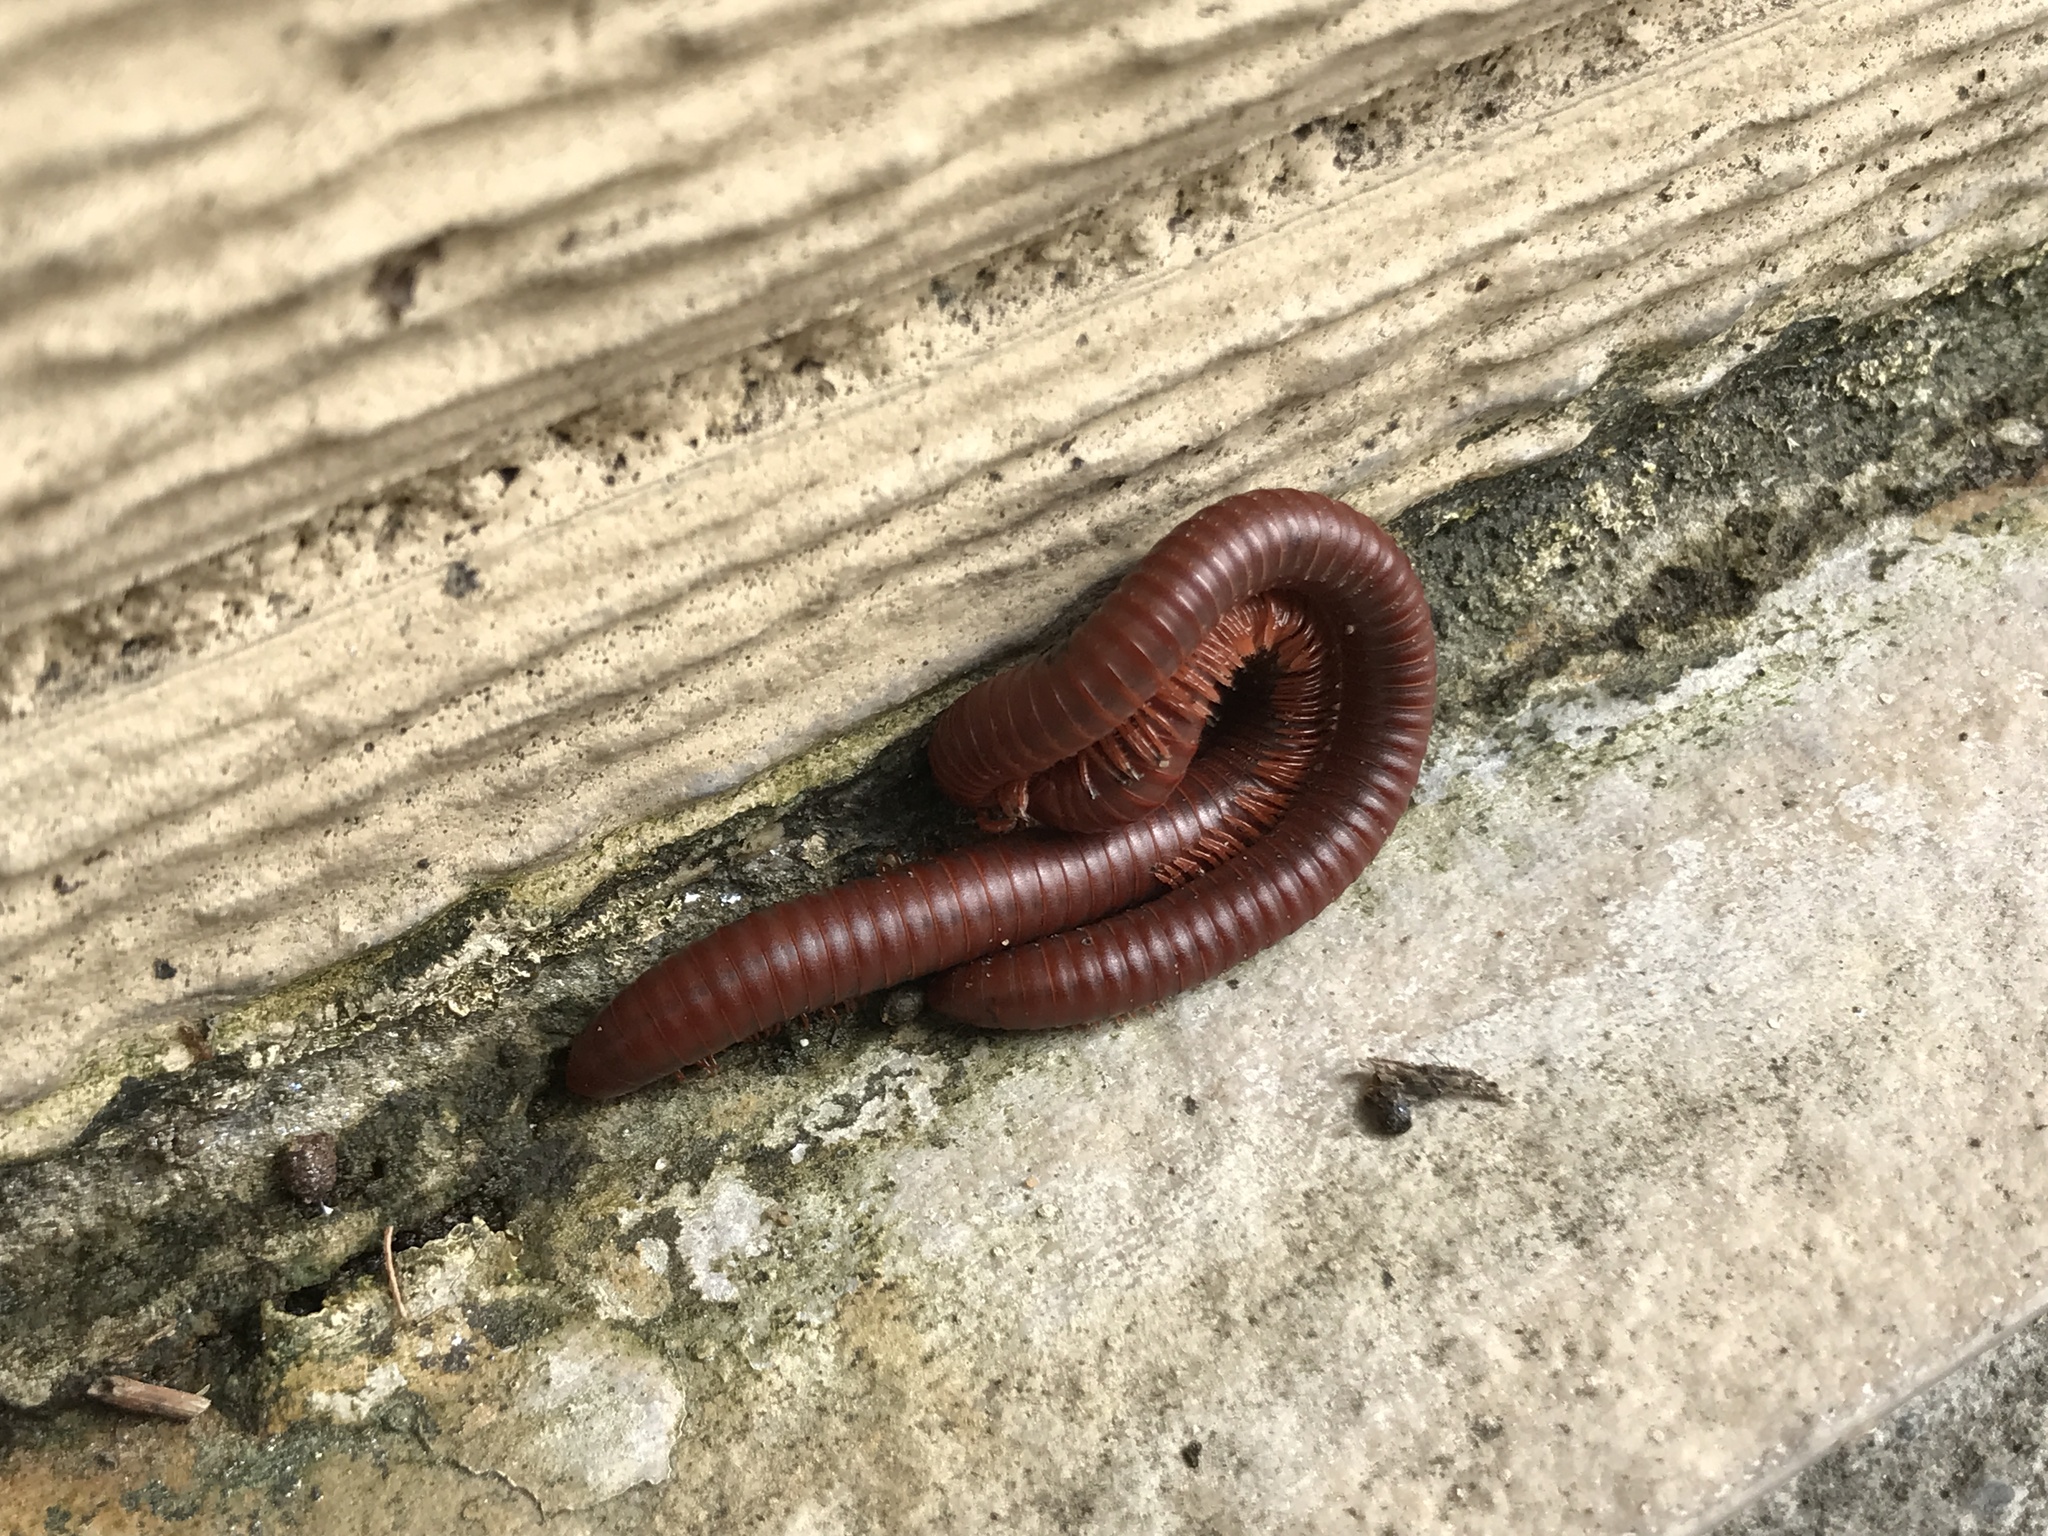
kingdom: Animalia
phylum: Arthropoda
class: Diplopoda
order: Spirobolida
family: Pachybolidae
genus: Trigoniulus
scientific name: Trigoniulus corallinus
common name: Millipede
